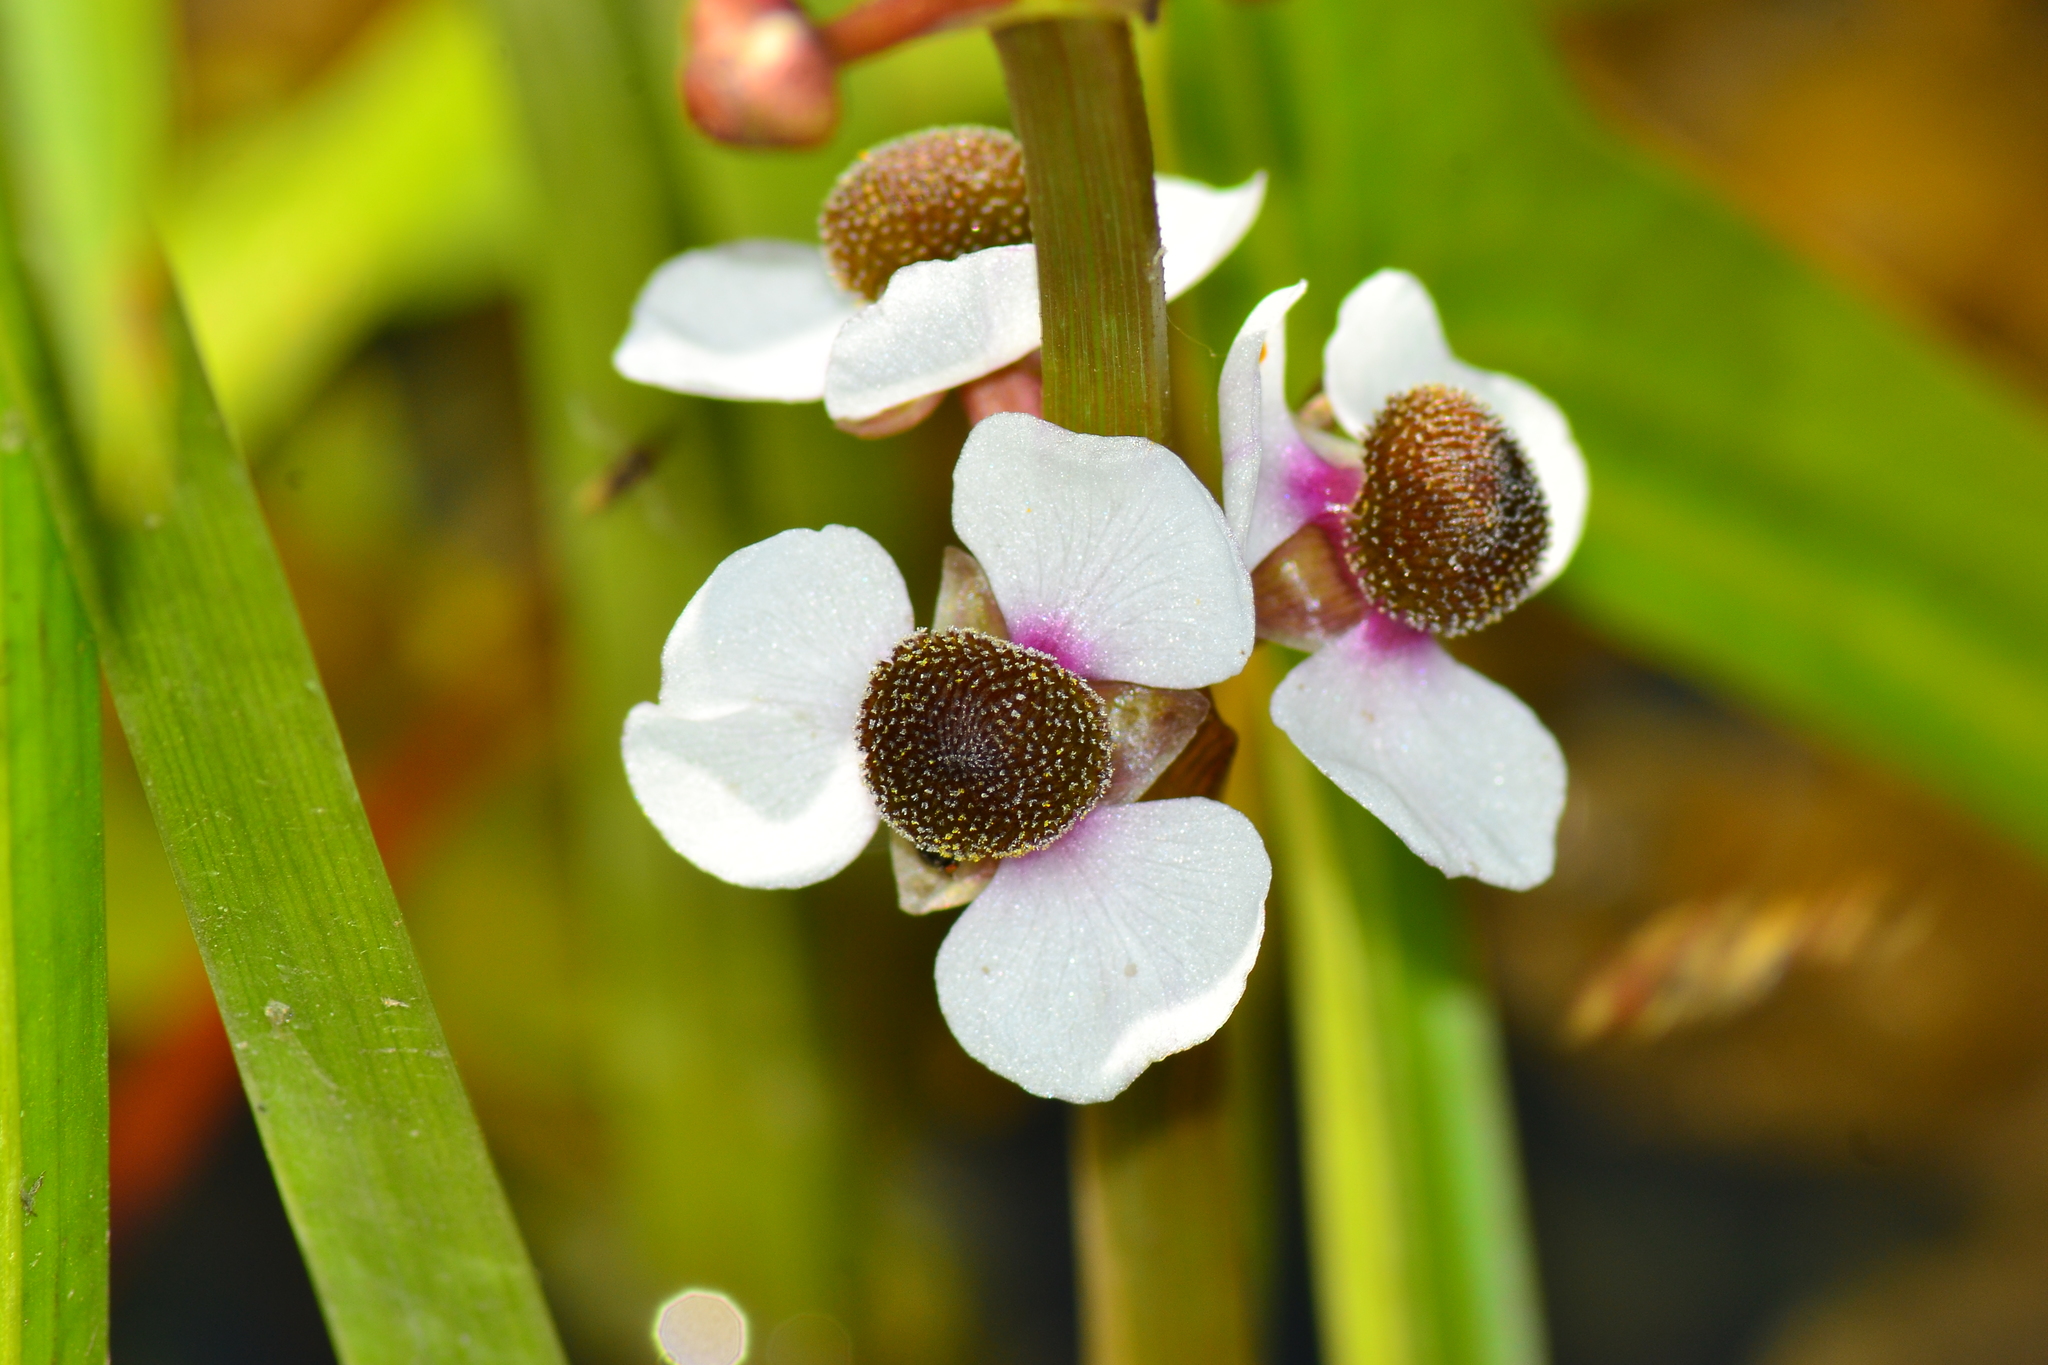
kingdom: Plantae
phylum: Tracheophyta
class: Liliopsida
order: Alismatales
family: Alismataceae
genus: Sagittaria
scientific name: Sagittaria sagittifolia
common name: Arrowhead
